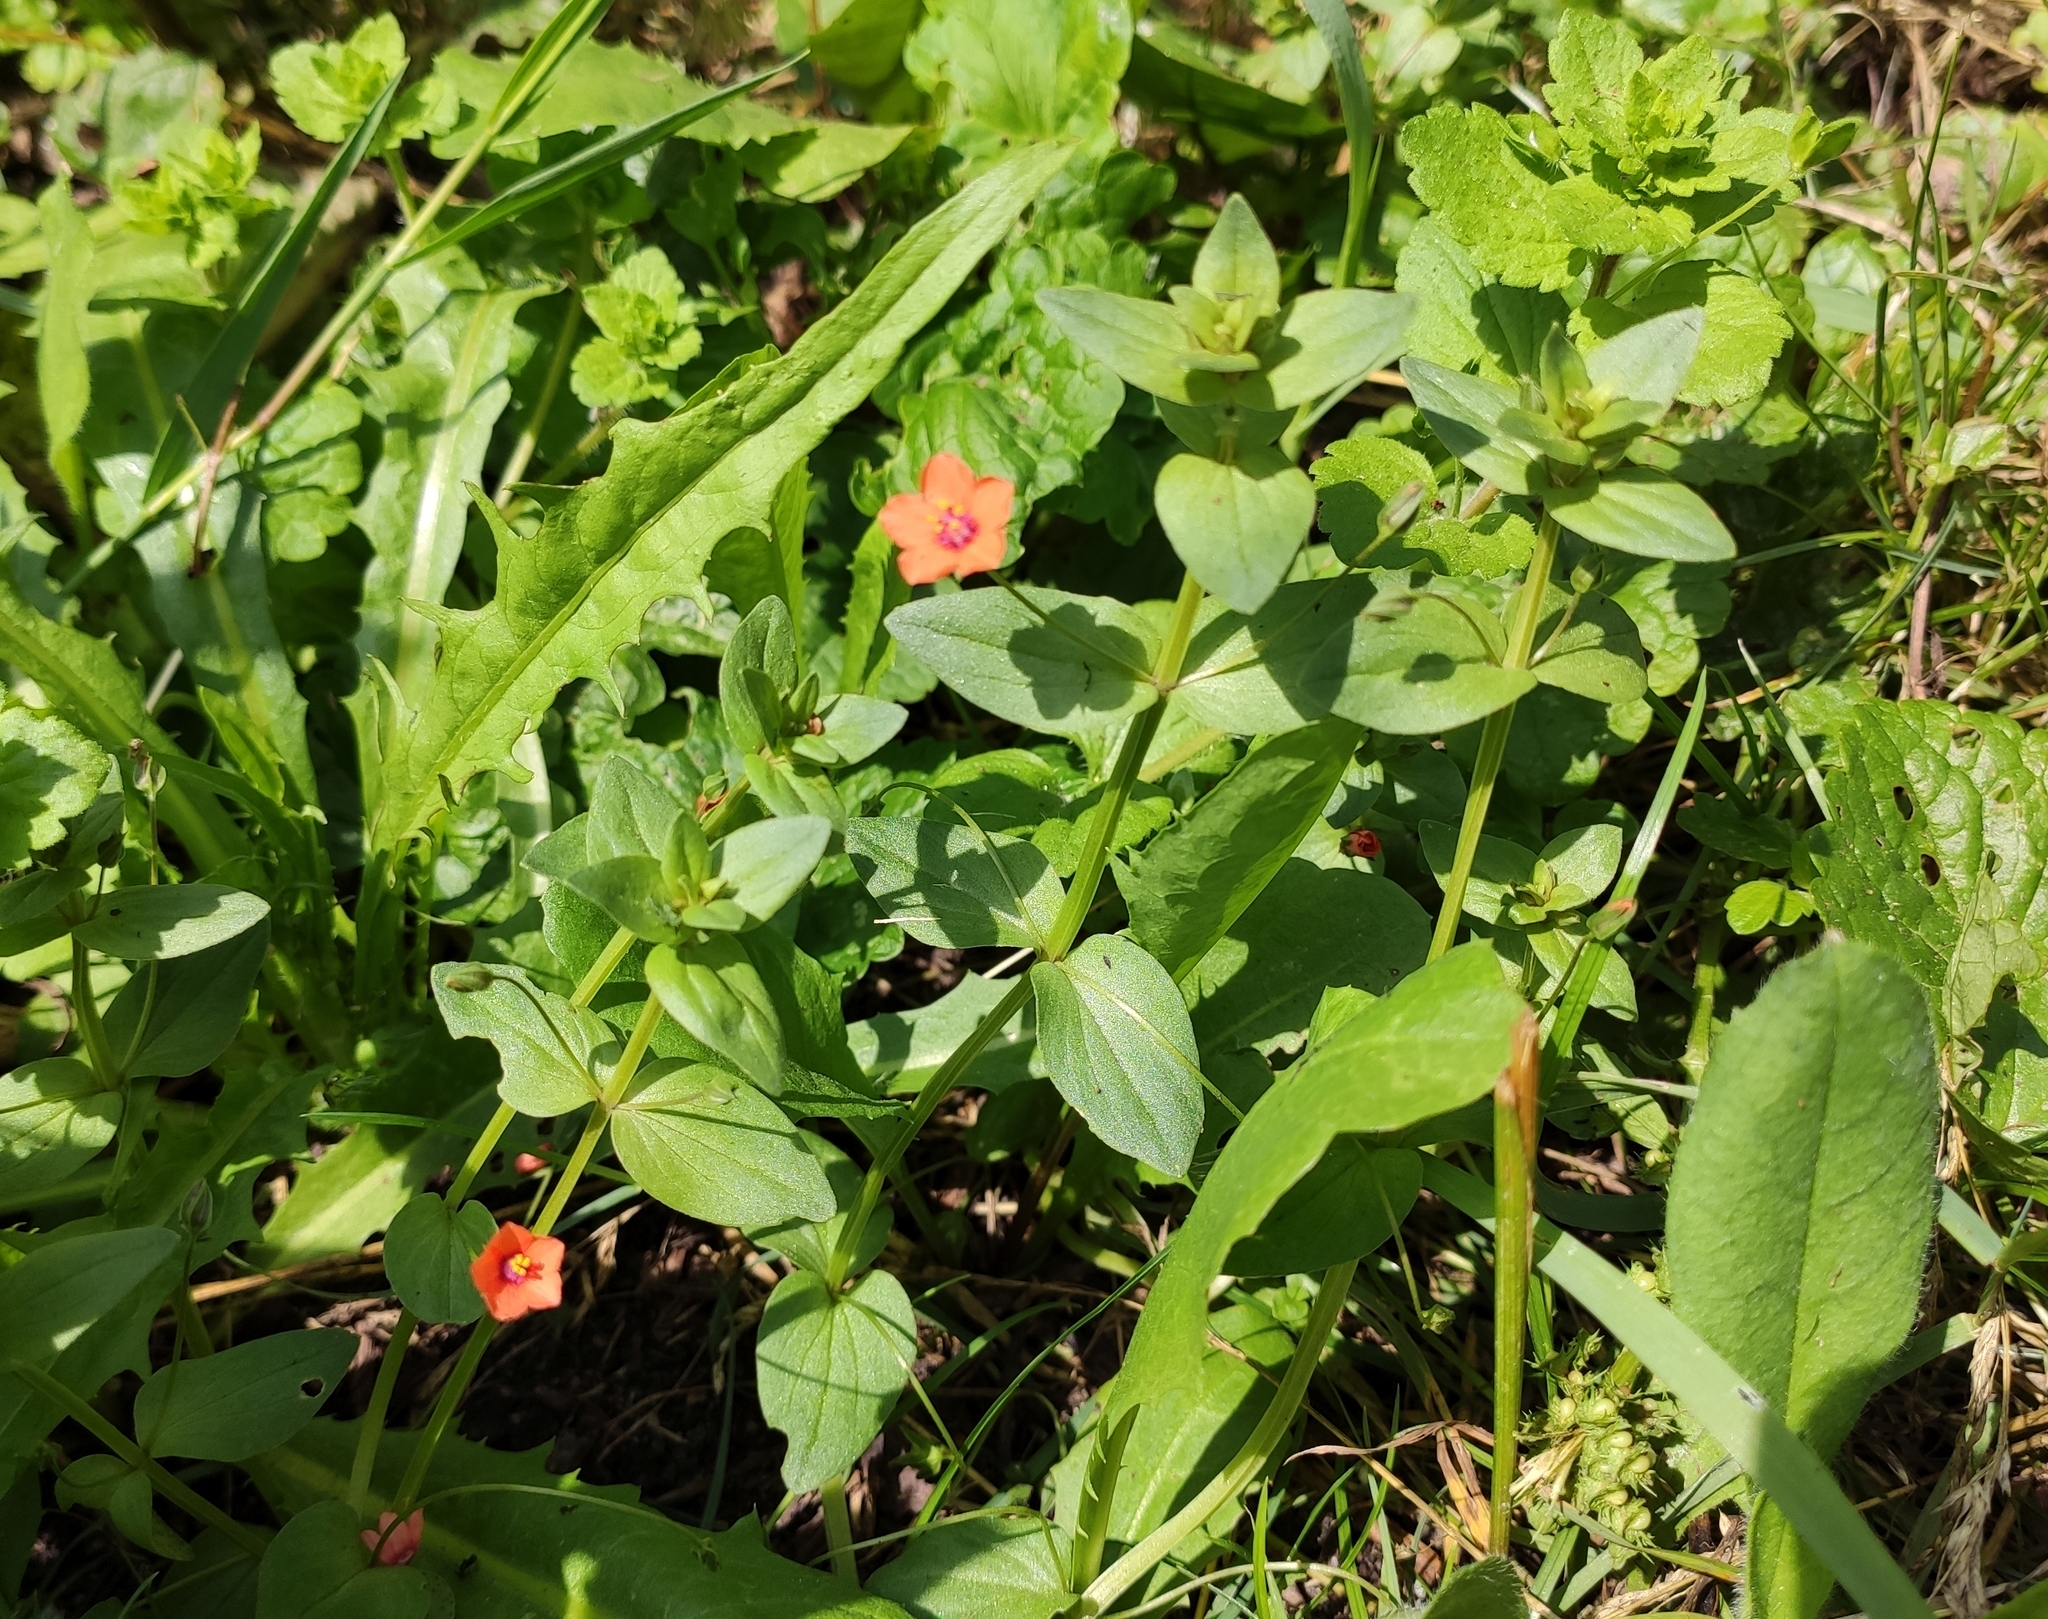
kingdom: Plantae
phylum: Tracheophyta
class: Magnoliopsida
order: Ericales
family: Primulaceae
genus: Lysimachia
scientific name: Lysimachia arvensis
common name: Scarlet pimpernel
